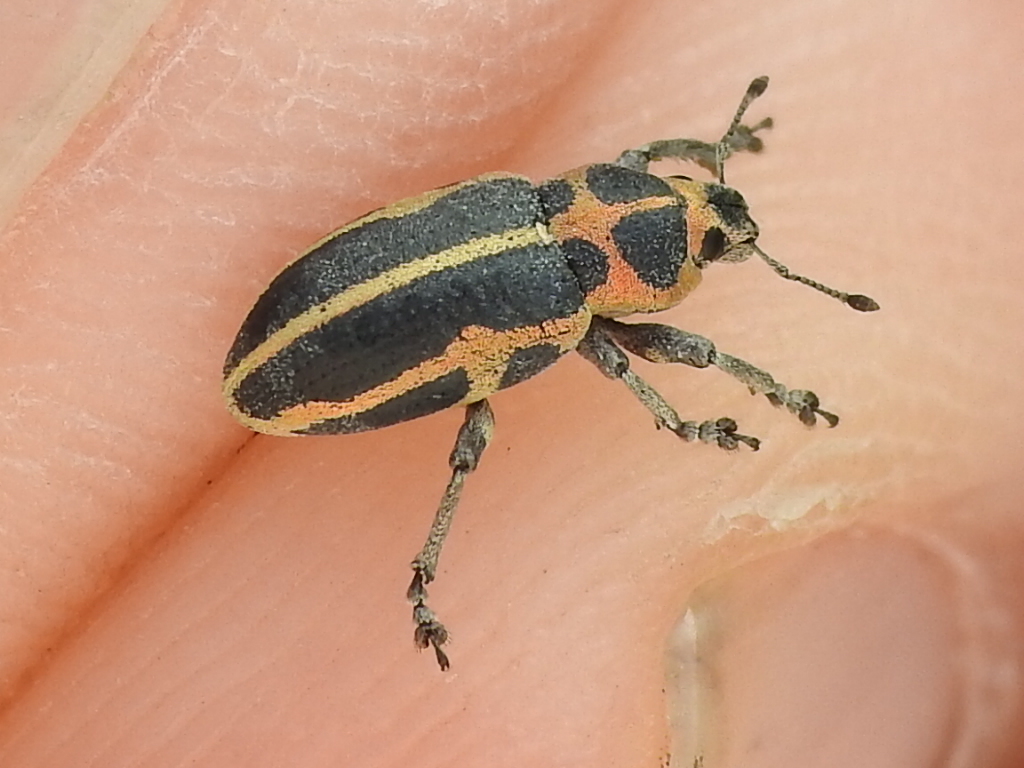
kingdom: Animalia
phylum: Arthropoda
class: Insecta
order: Coleoptera
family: Curculionidae
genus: Eudiagogus
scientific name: Eudiagogus pulcher
